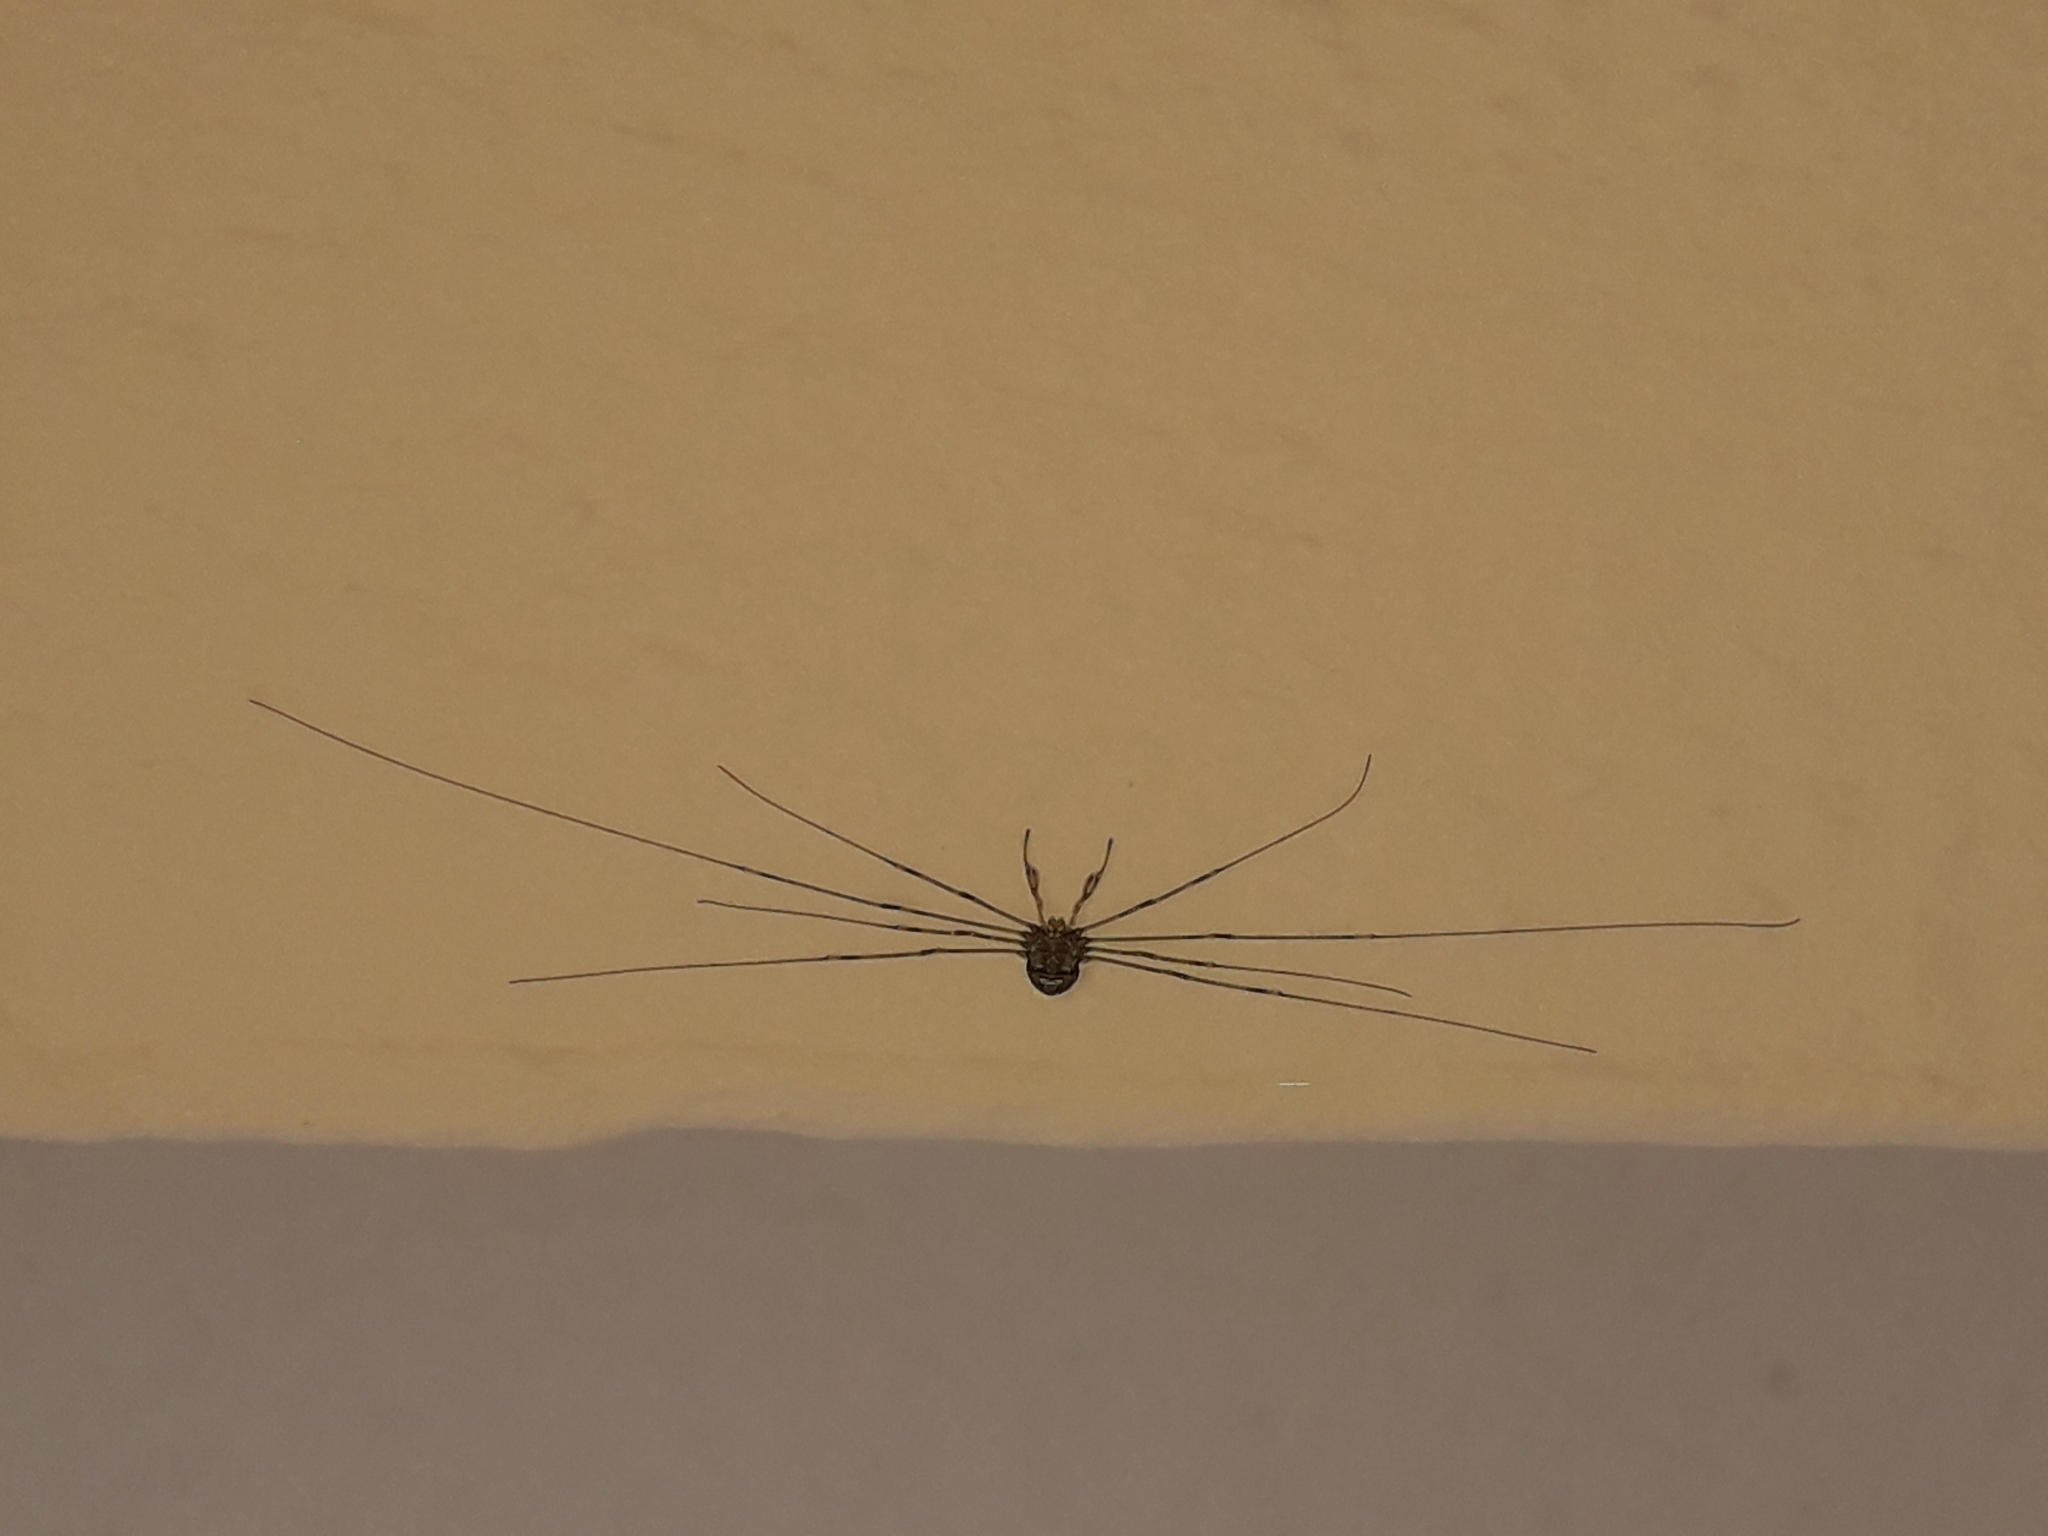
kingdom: Animalia
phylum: Arthropoda
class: Arachnida
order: Opiliones
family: Phalangiidae
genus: Dicranopalpus
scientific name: Dicranopalpus ramosus
